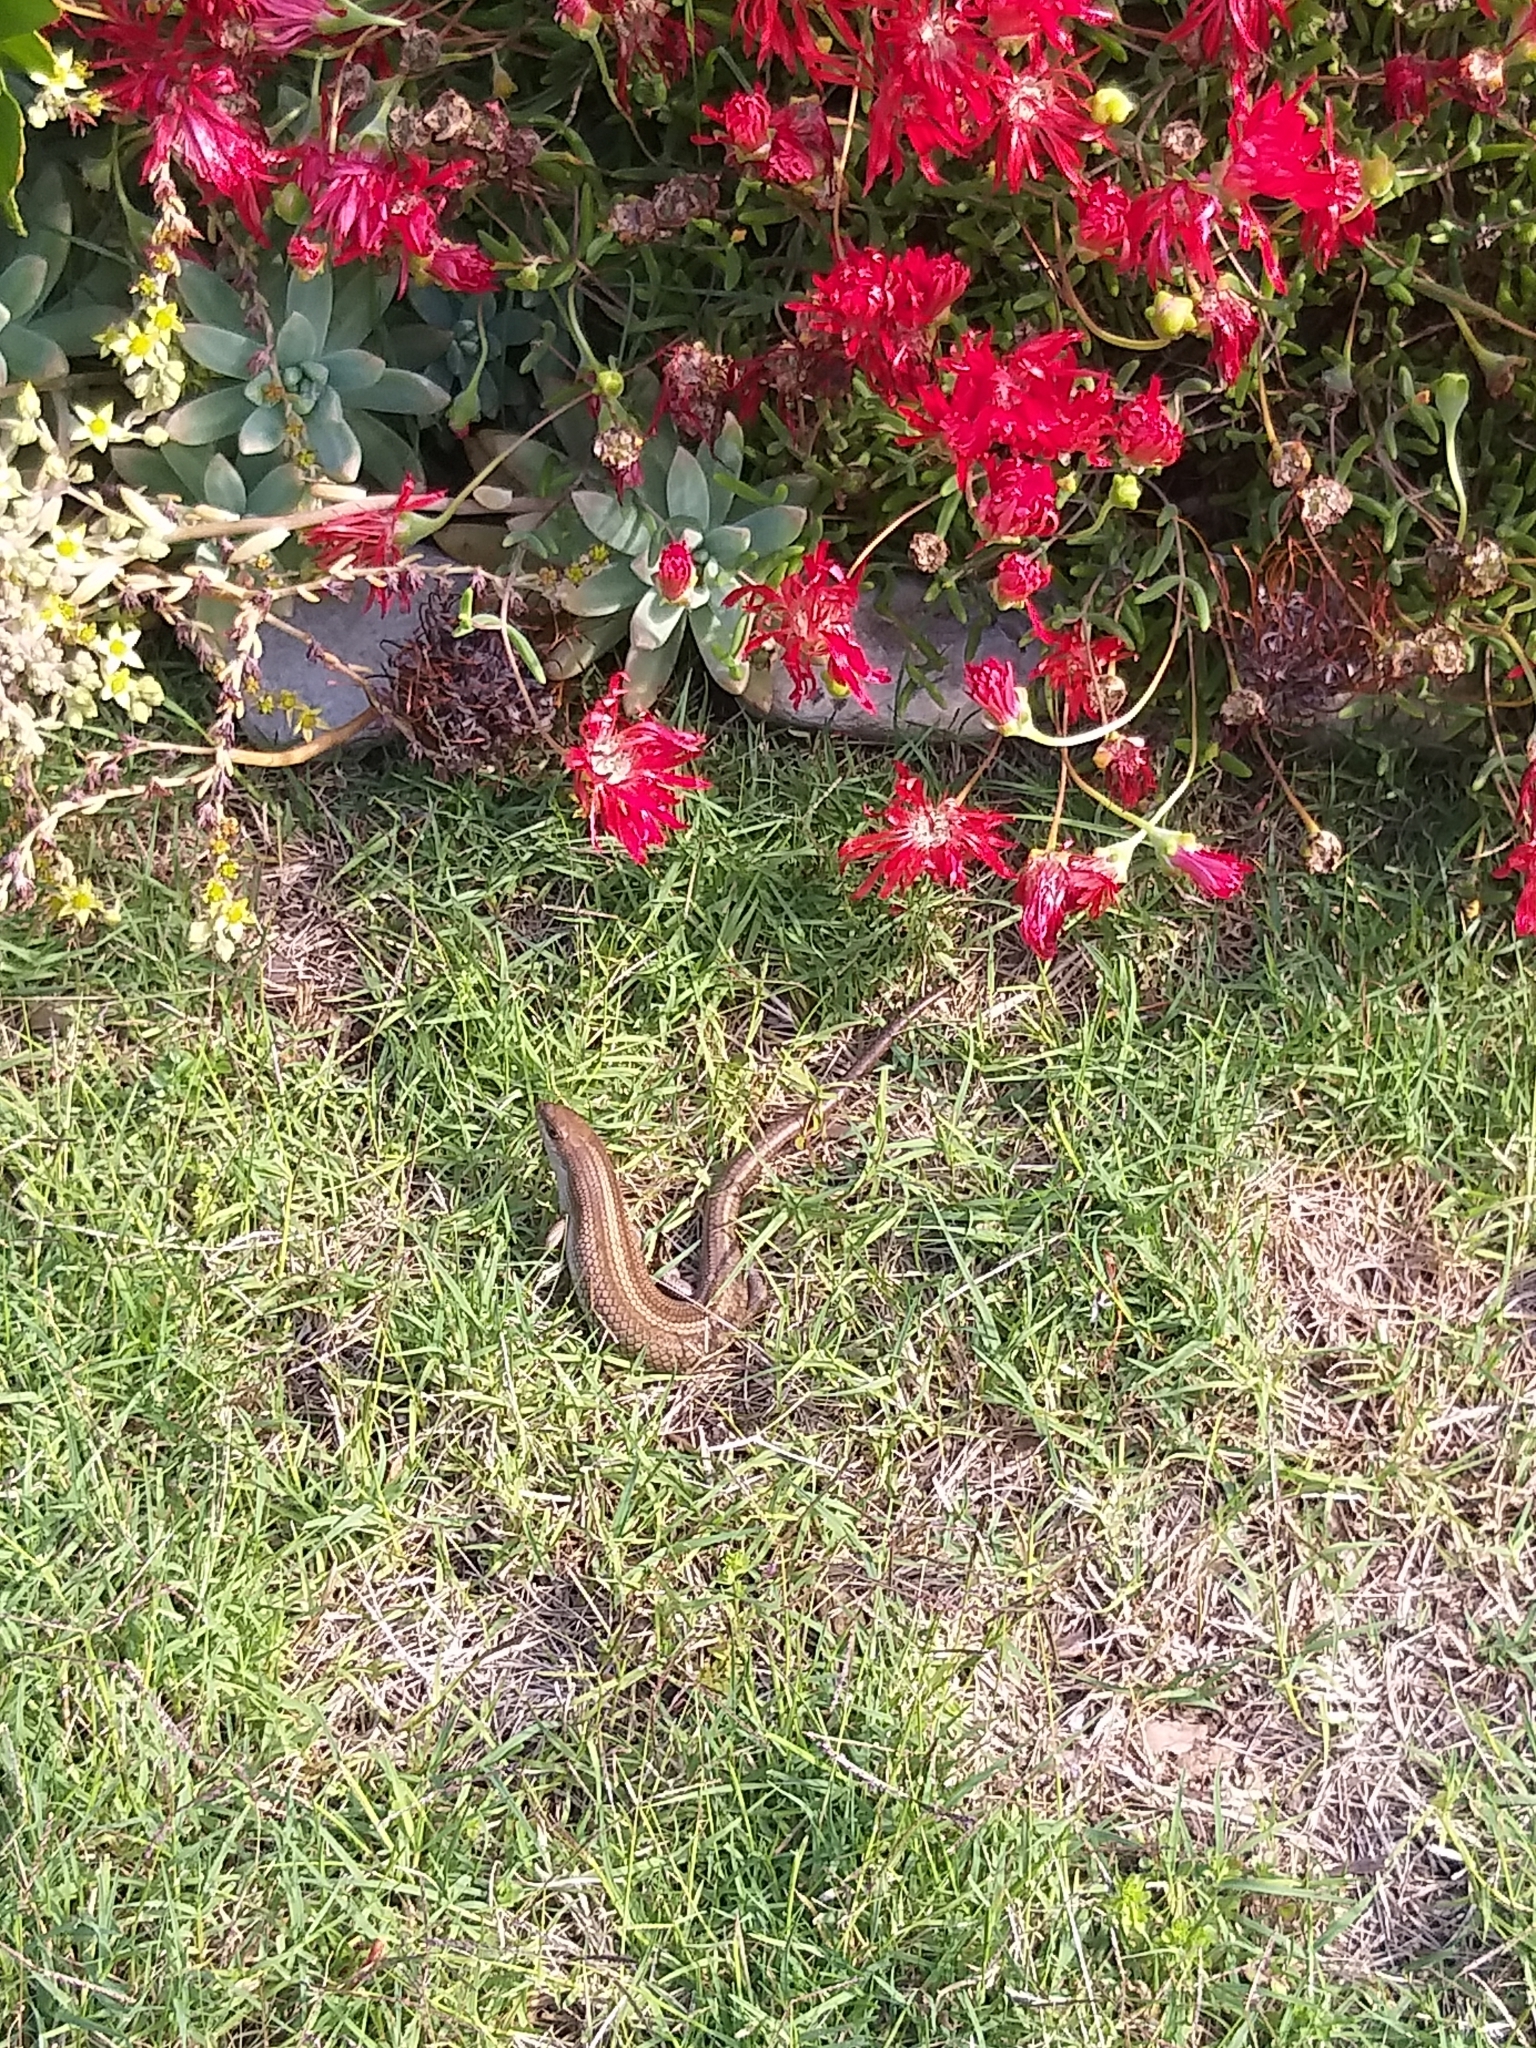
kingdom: Animalia
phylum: Chordata
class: Squamata
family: Scincidae
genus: Trachylepis
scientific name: Trachylepis capensis
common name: Cape skink
